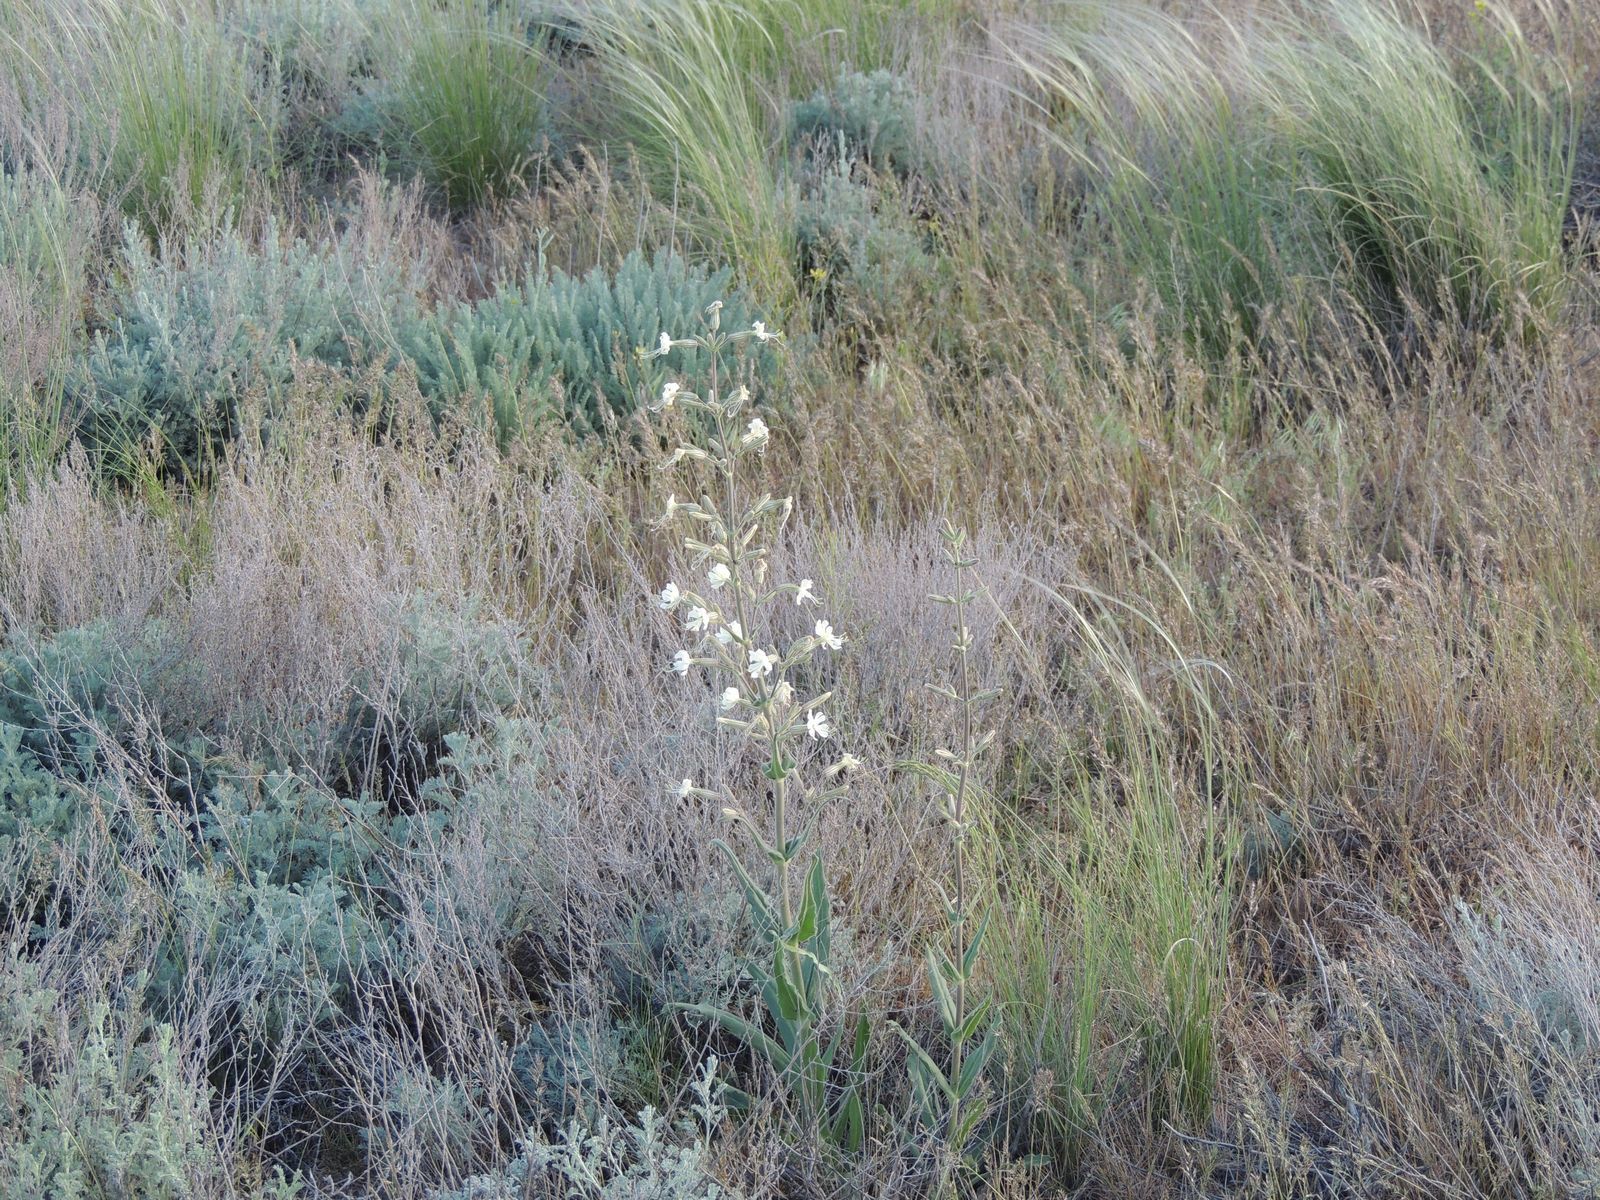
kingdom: Plantae
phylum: Tracheophyta
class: Magnoliopsida
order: Caryophyllales
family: Caryophyllaceae
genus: Silene
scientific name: Silene viscosa
